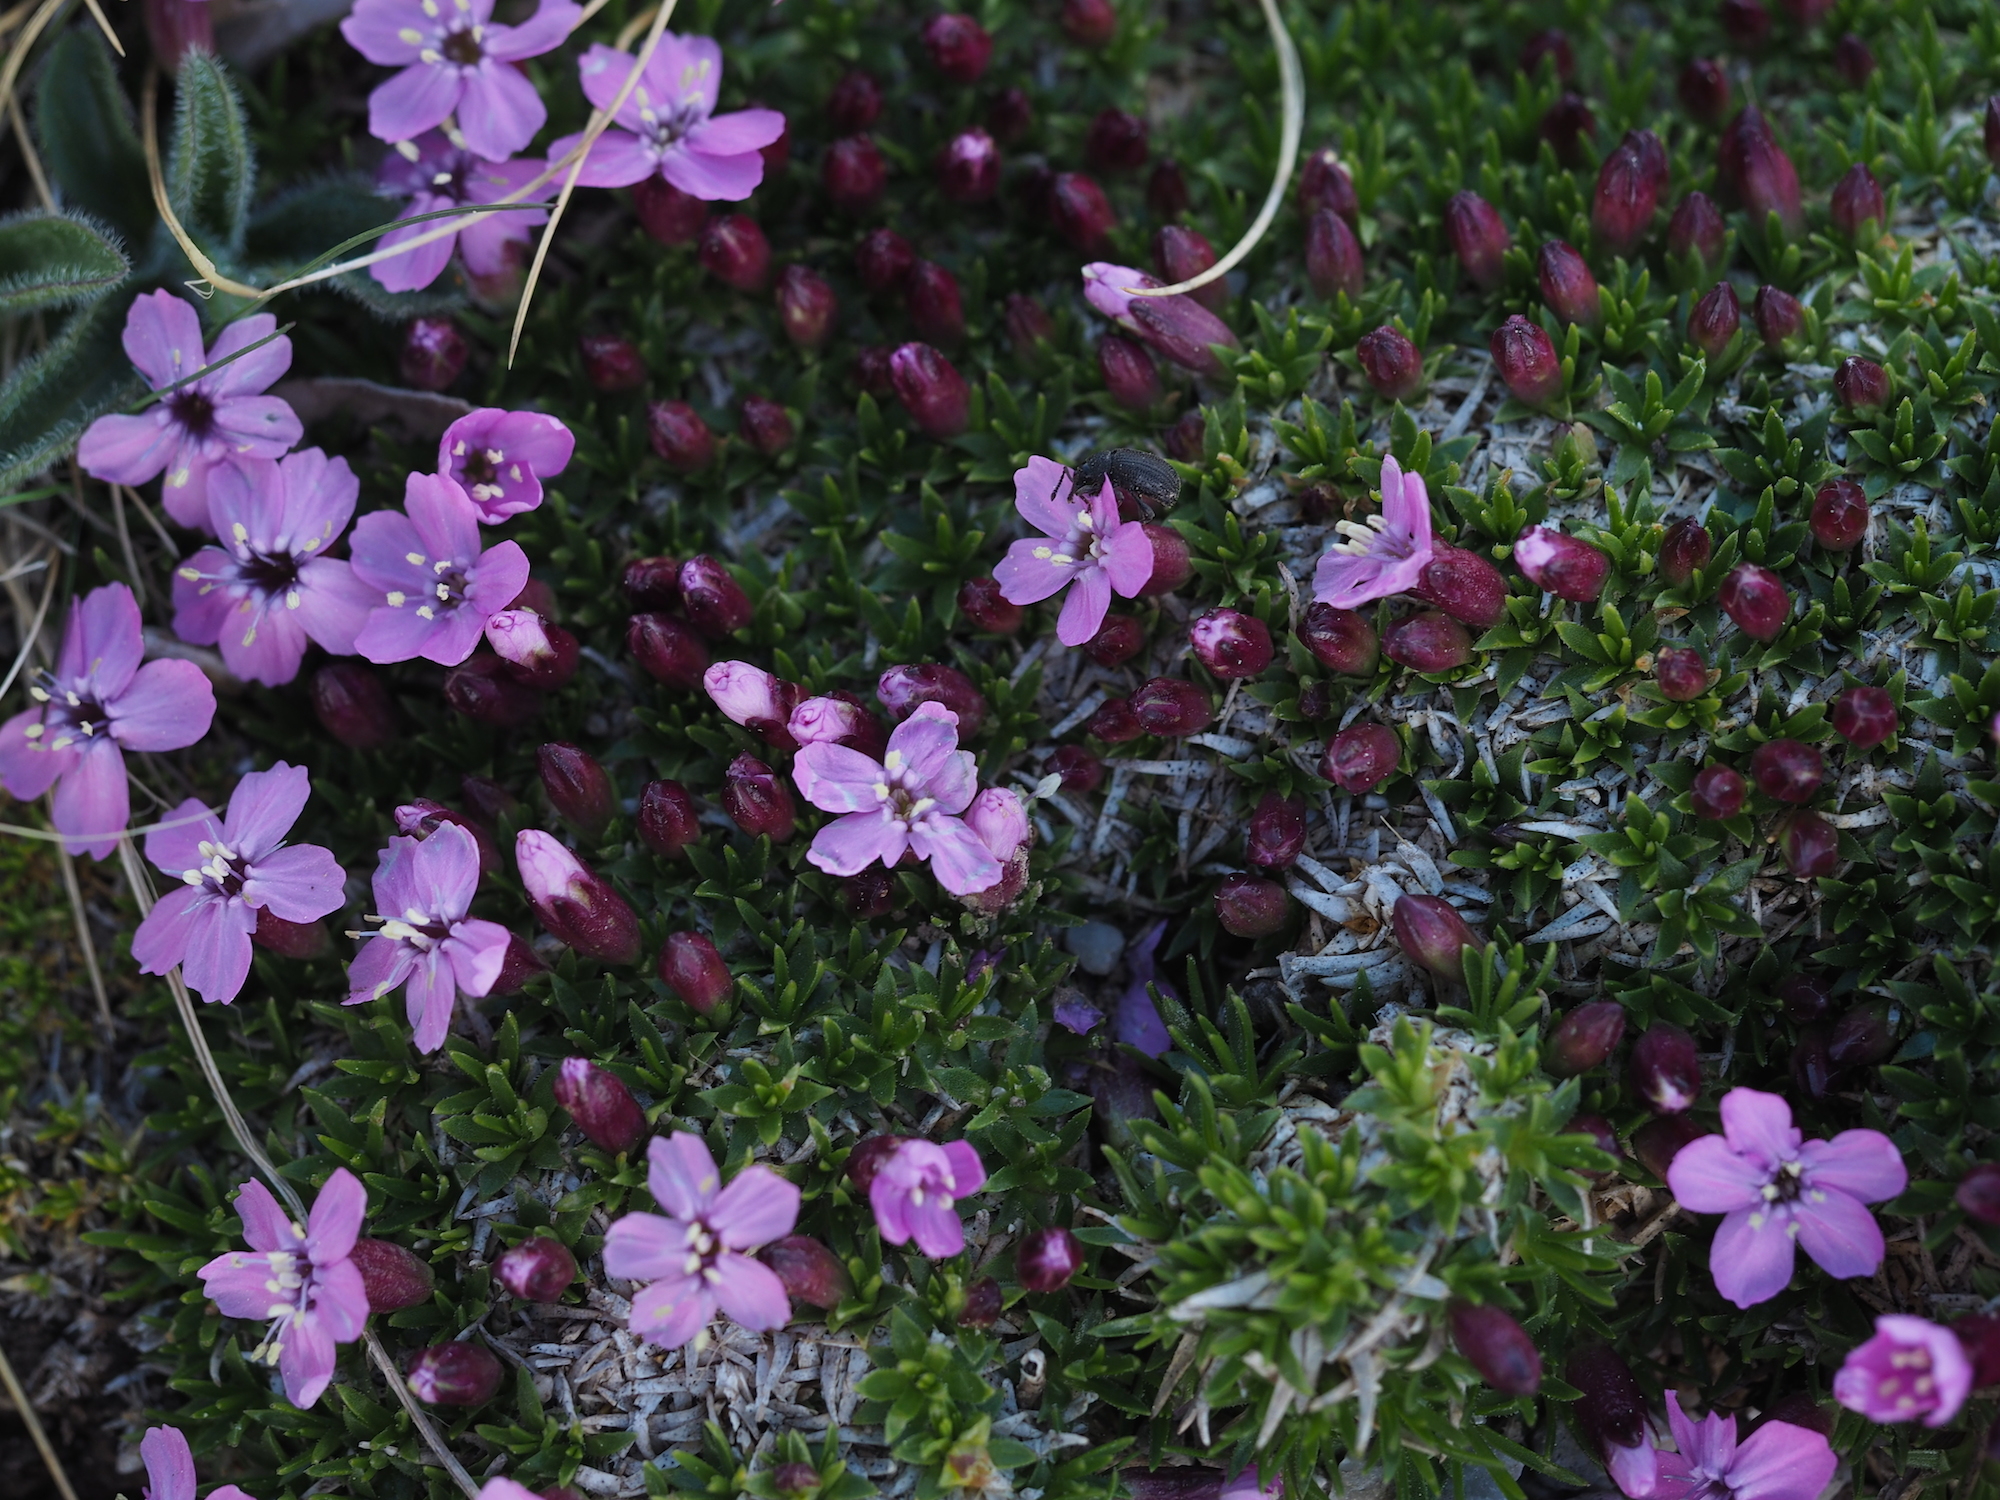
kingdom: Plantae
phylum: Tracheophyta
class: Magnoliopsida
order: Caryophyllales
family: Caryophyllaceae
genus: Silene
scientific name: Silene acaulis
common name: Moss campion
